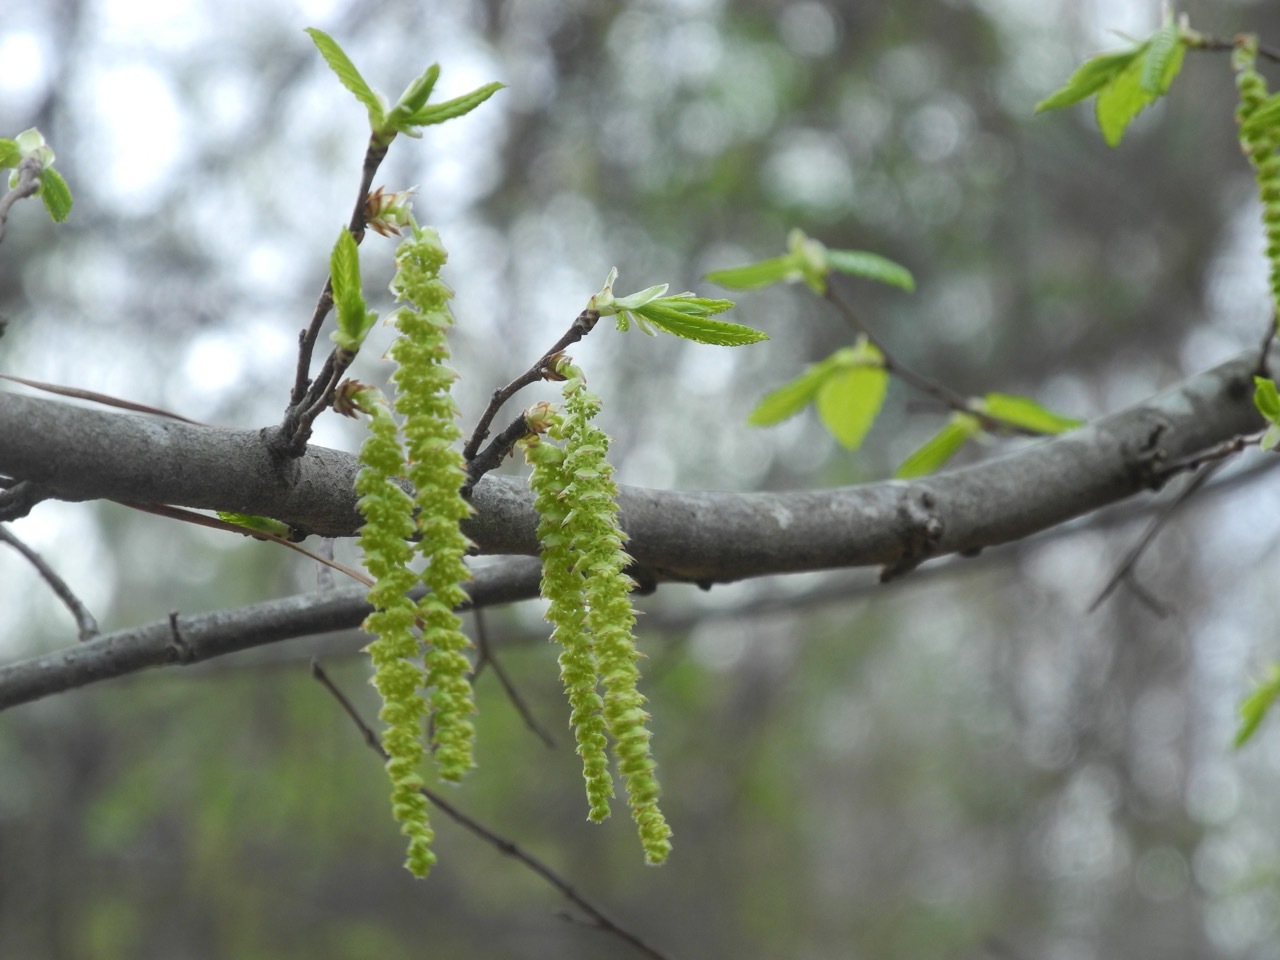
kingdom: Plantae
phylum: Tracheophyta
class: Magnoliopsida
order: Fagales
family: Betulaceae
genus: Carpinus
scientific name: Carpinus caroliniana
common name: American hornbeam
